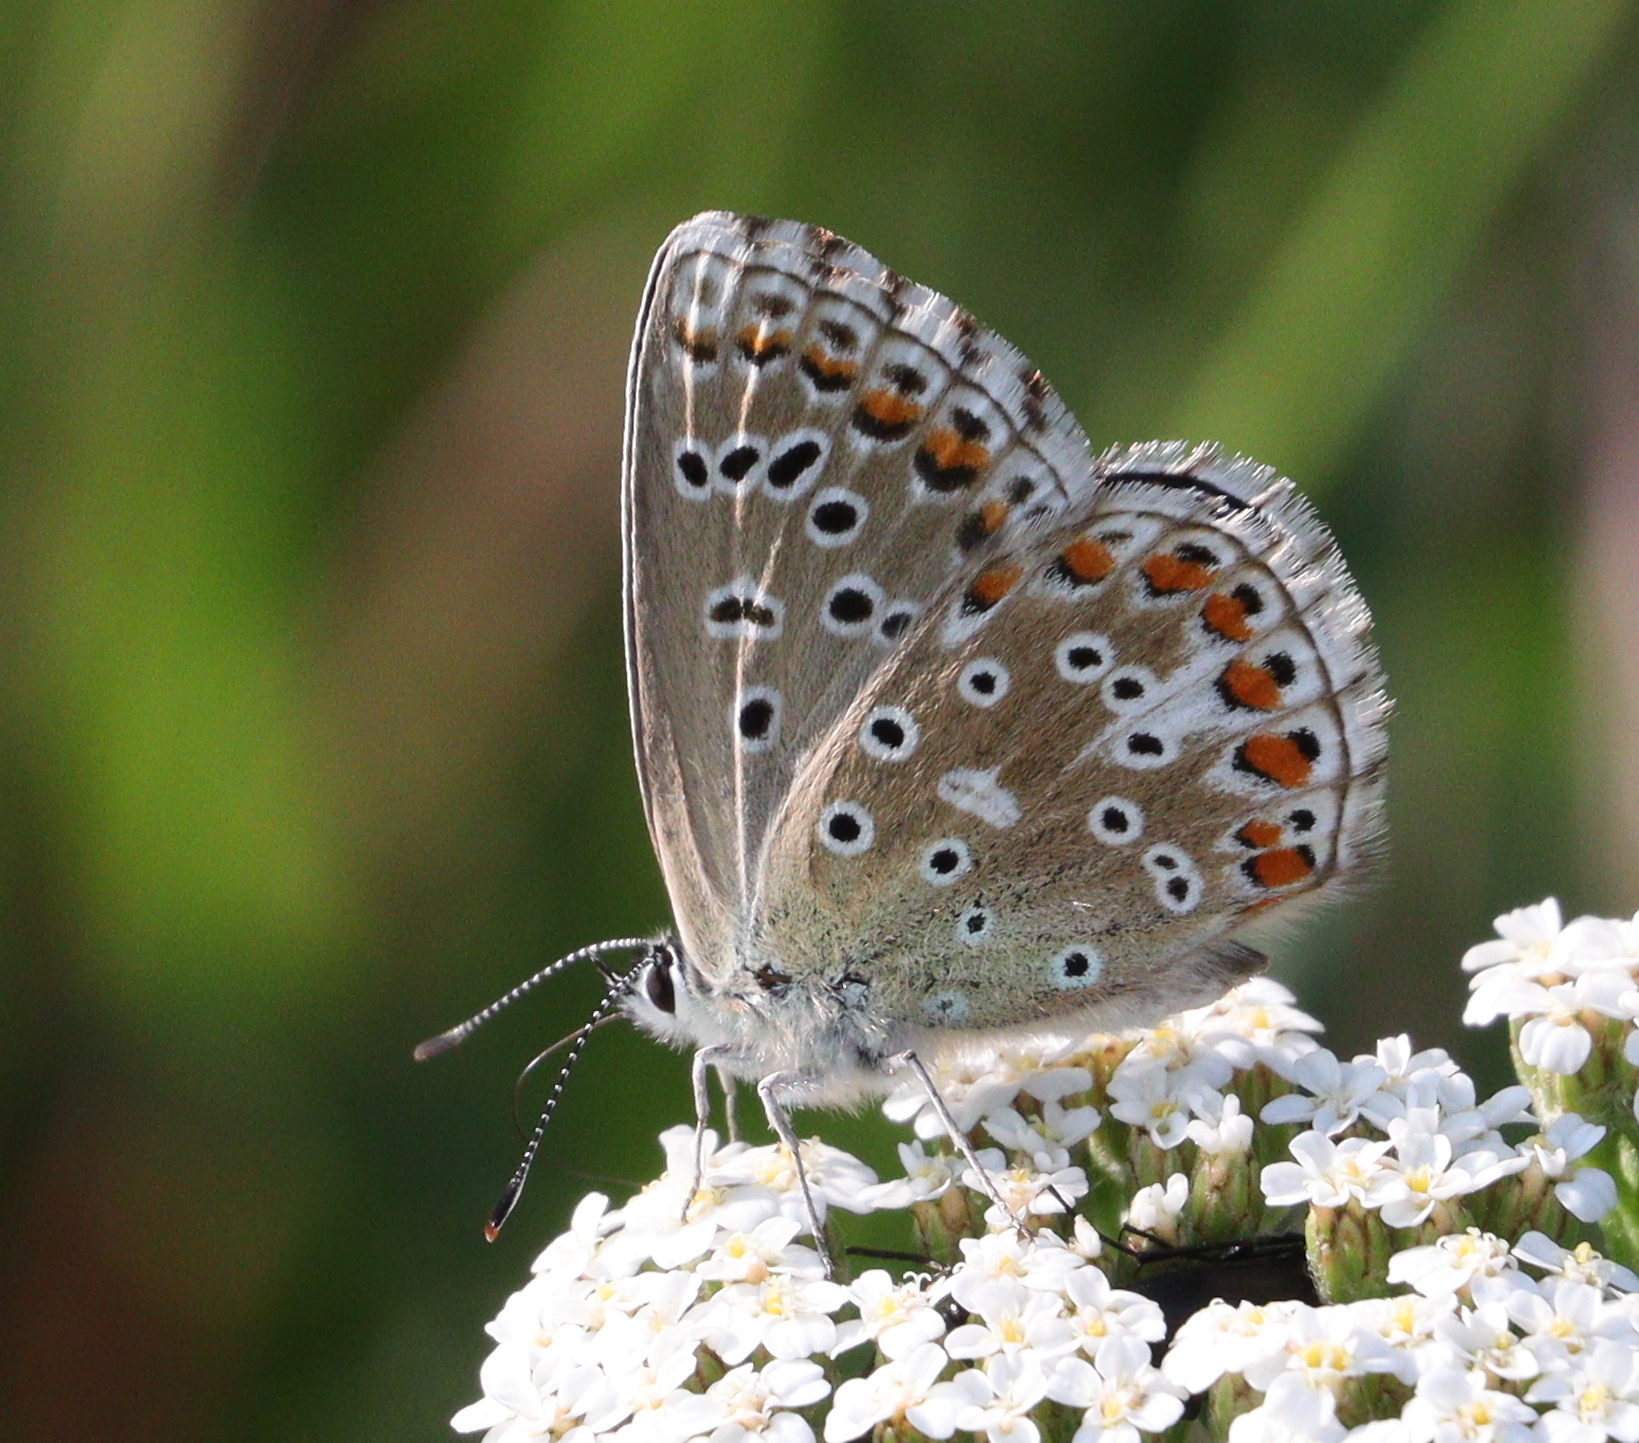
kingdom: Animalia
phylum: Arthropoda
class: Insecta
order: Lepidoptera
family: Lycaenidae
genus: Lysandra
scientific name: Lysandra bellargus
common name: Adonis blue
